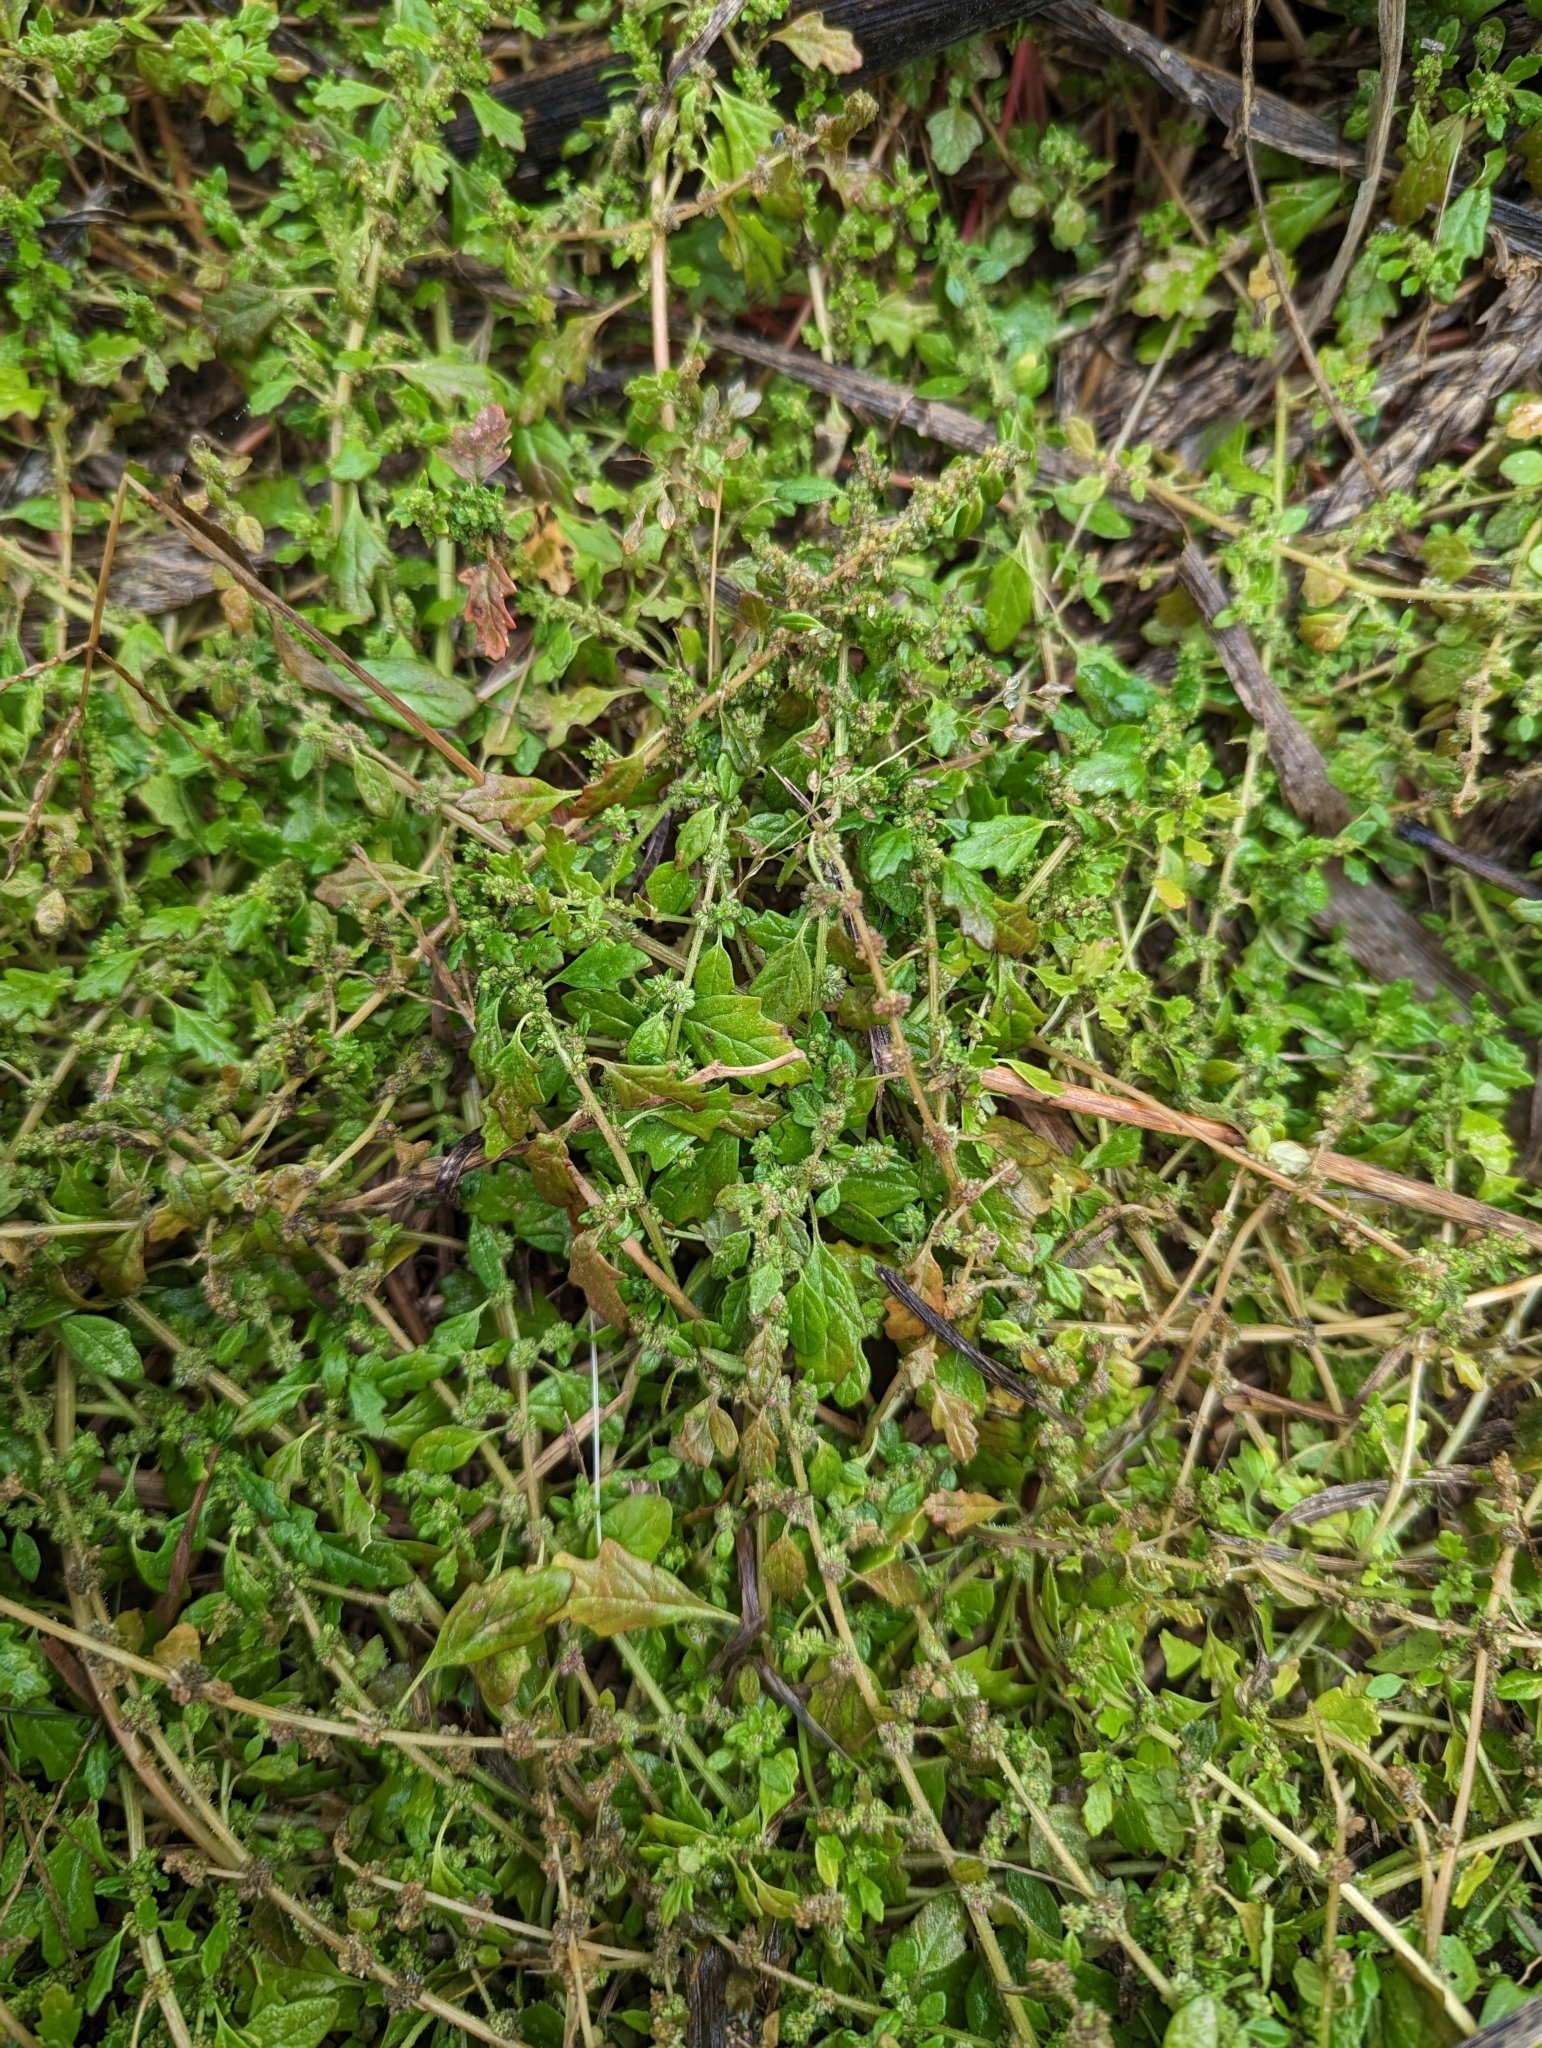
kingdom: Plantae
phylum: Tracheophyta
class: Magnoliopsida
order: Caryophyllales
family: Amaranthaceae
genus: Dysphania
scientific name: Dysphania pumilio
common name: Clammy goosefoot
